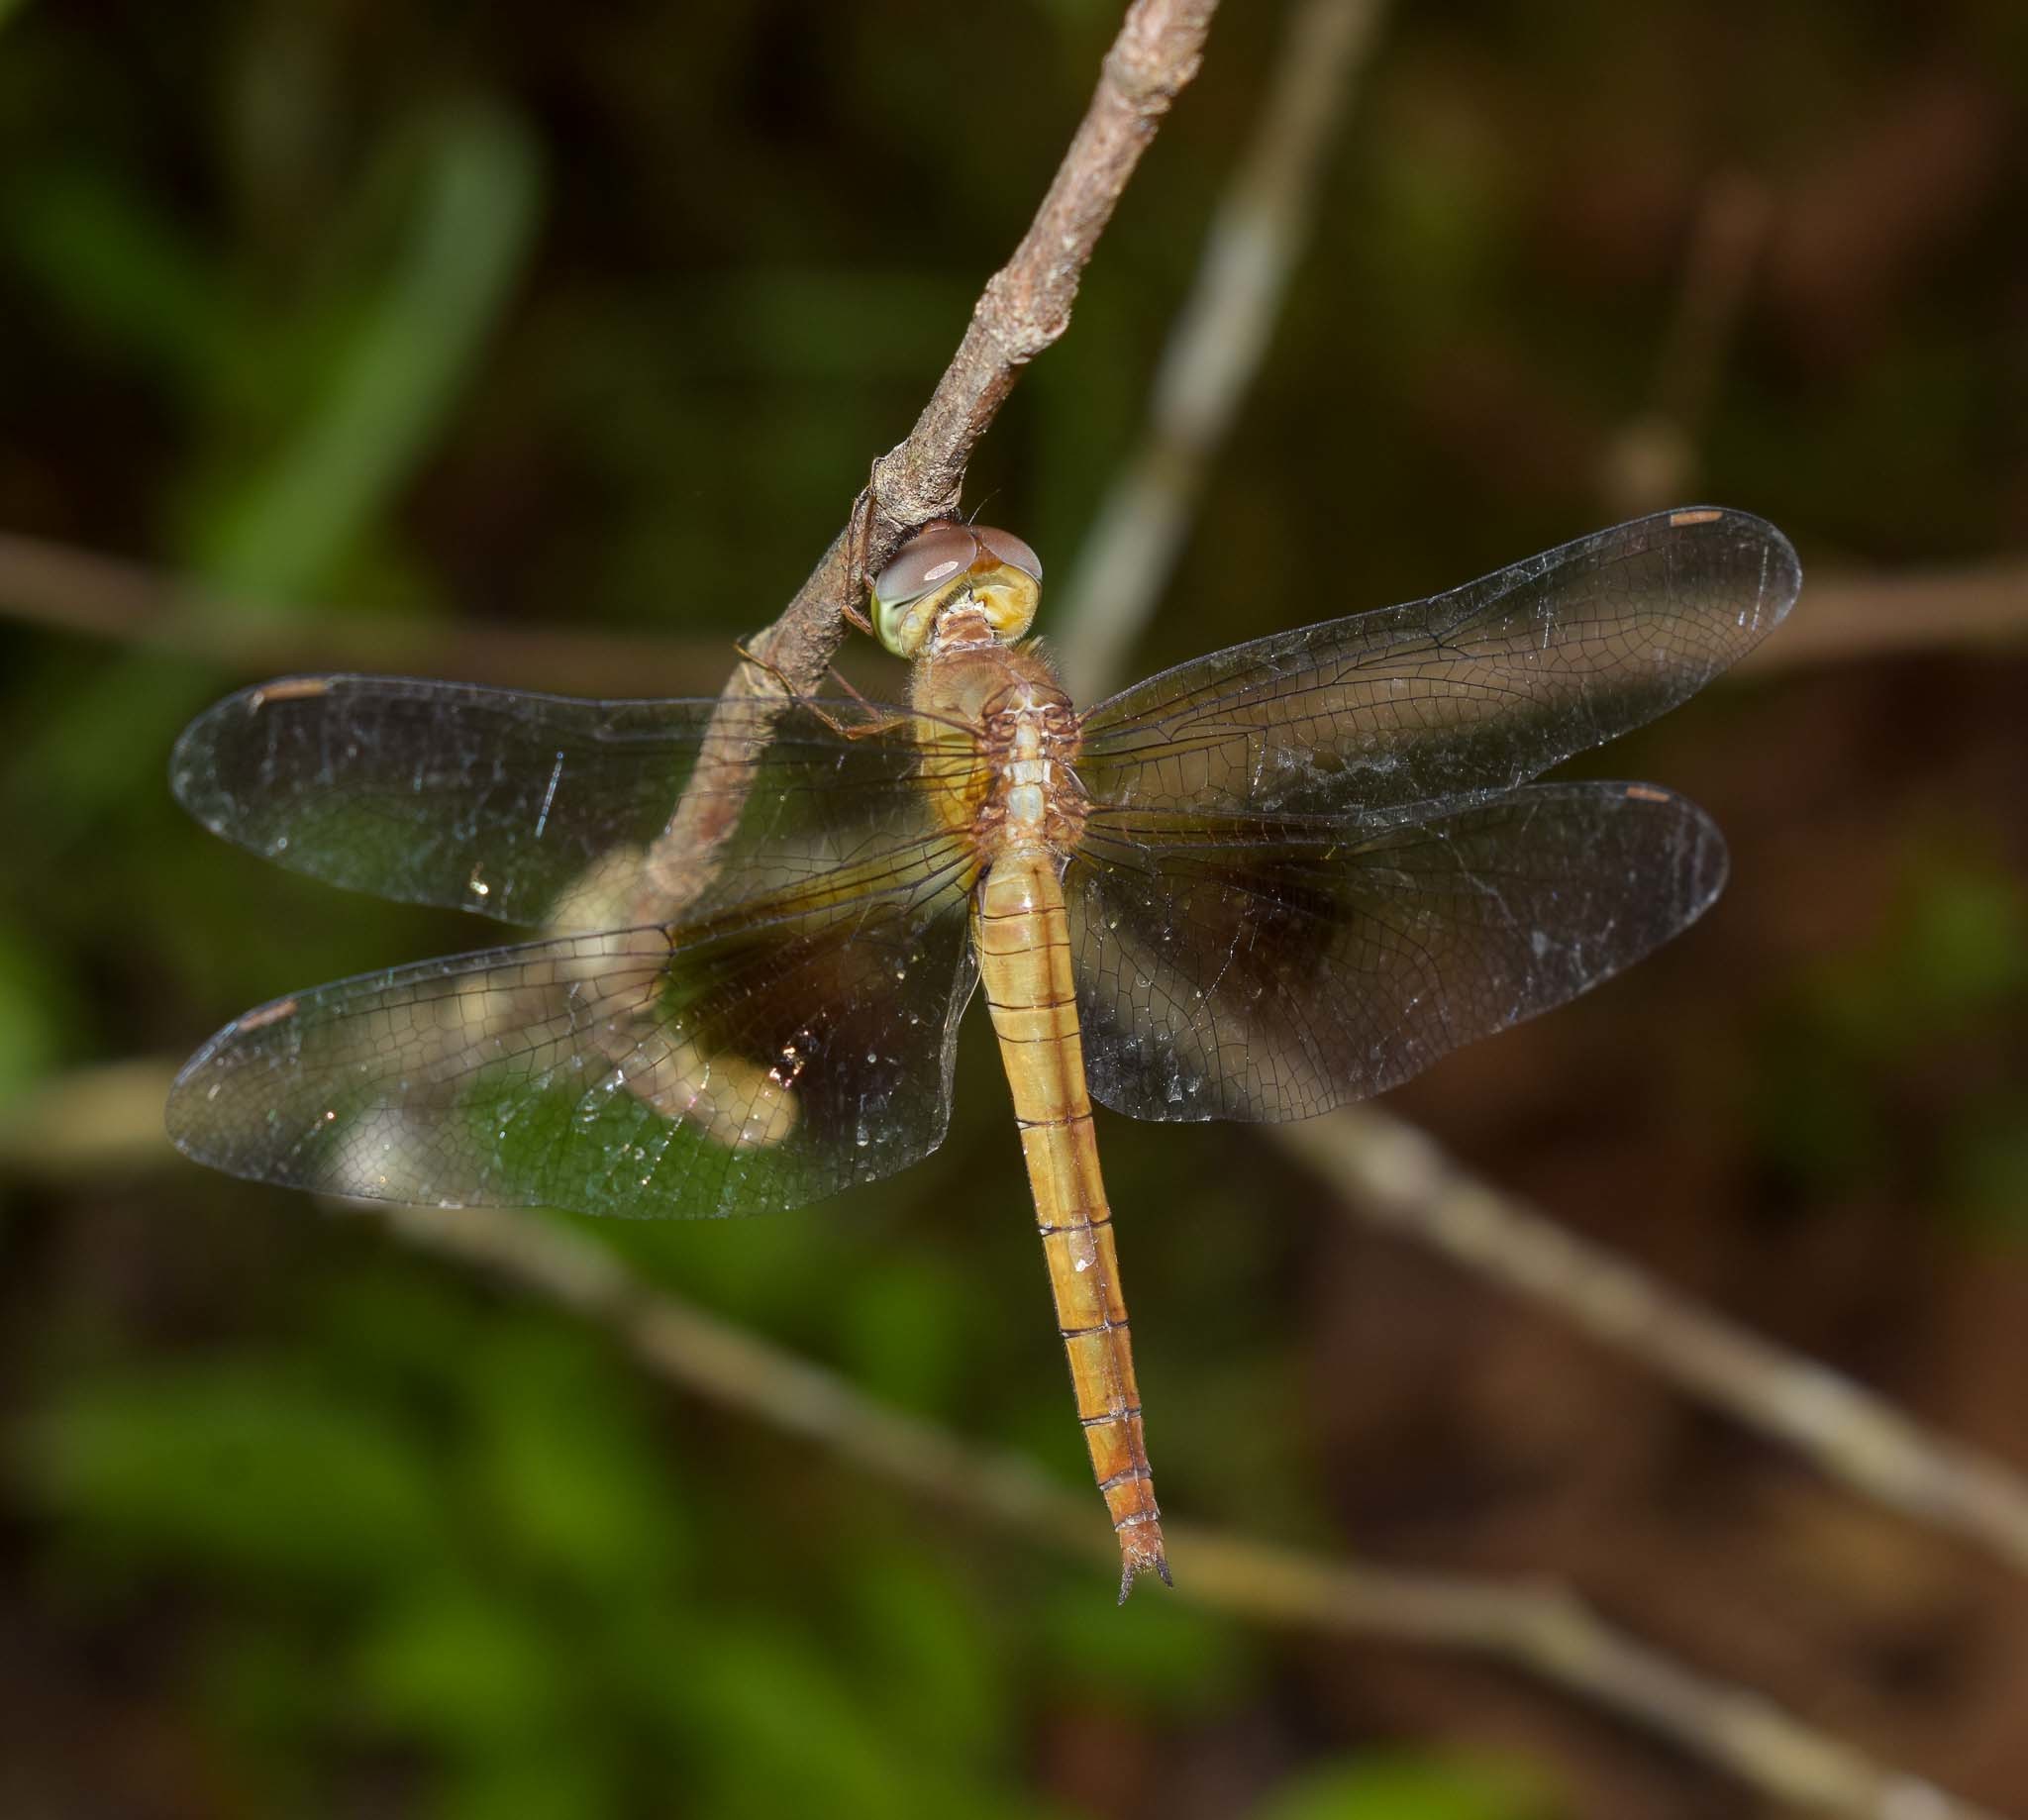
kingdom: Animalia
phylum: Arthropoda
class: Insecta
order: Odonata
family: Libellulidae
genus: Tholymis
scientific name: Tholymis tillarga
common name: Coral-tailed cloud wing
